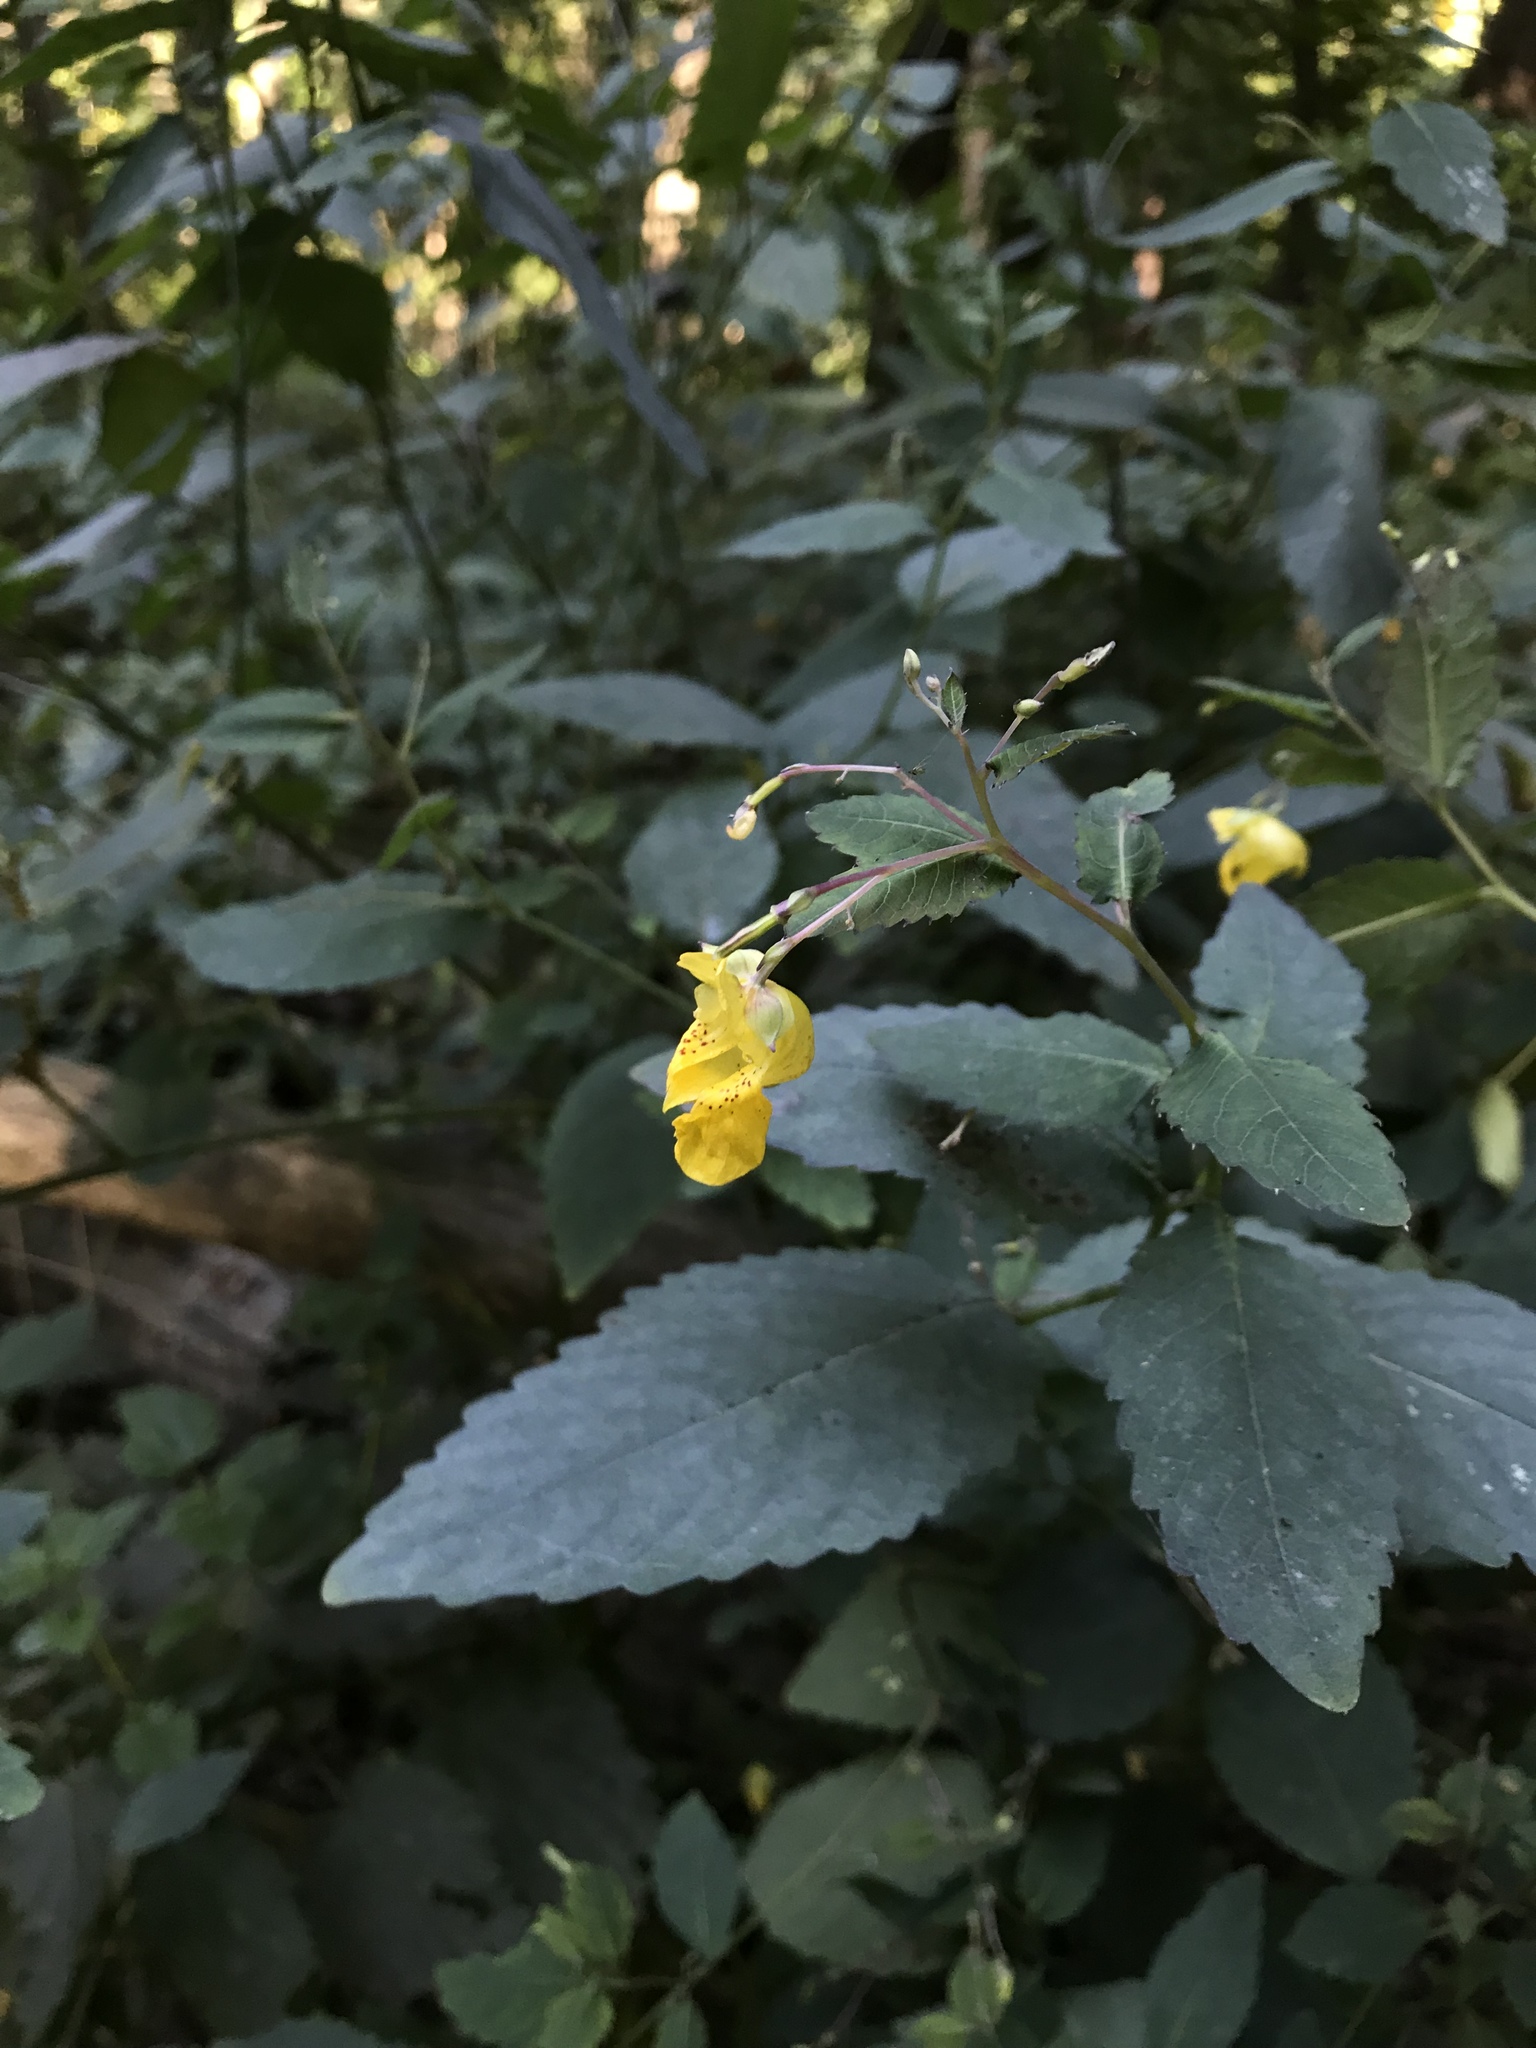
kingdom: Plantae
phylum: Tracheophyta
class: Magnoliopsida
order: Ericales
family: Balsaminaceae
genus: Impatiens
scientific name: Impatiens pallida
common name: Pale snapweed
